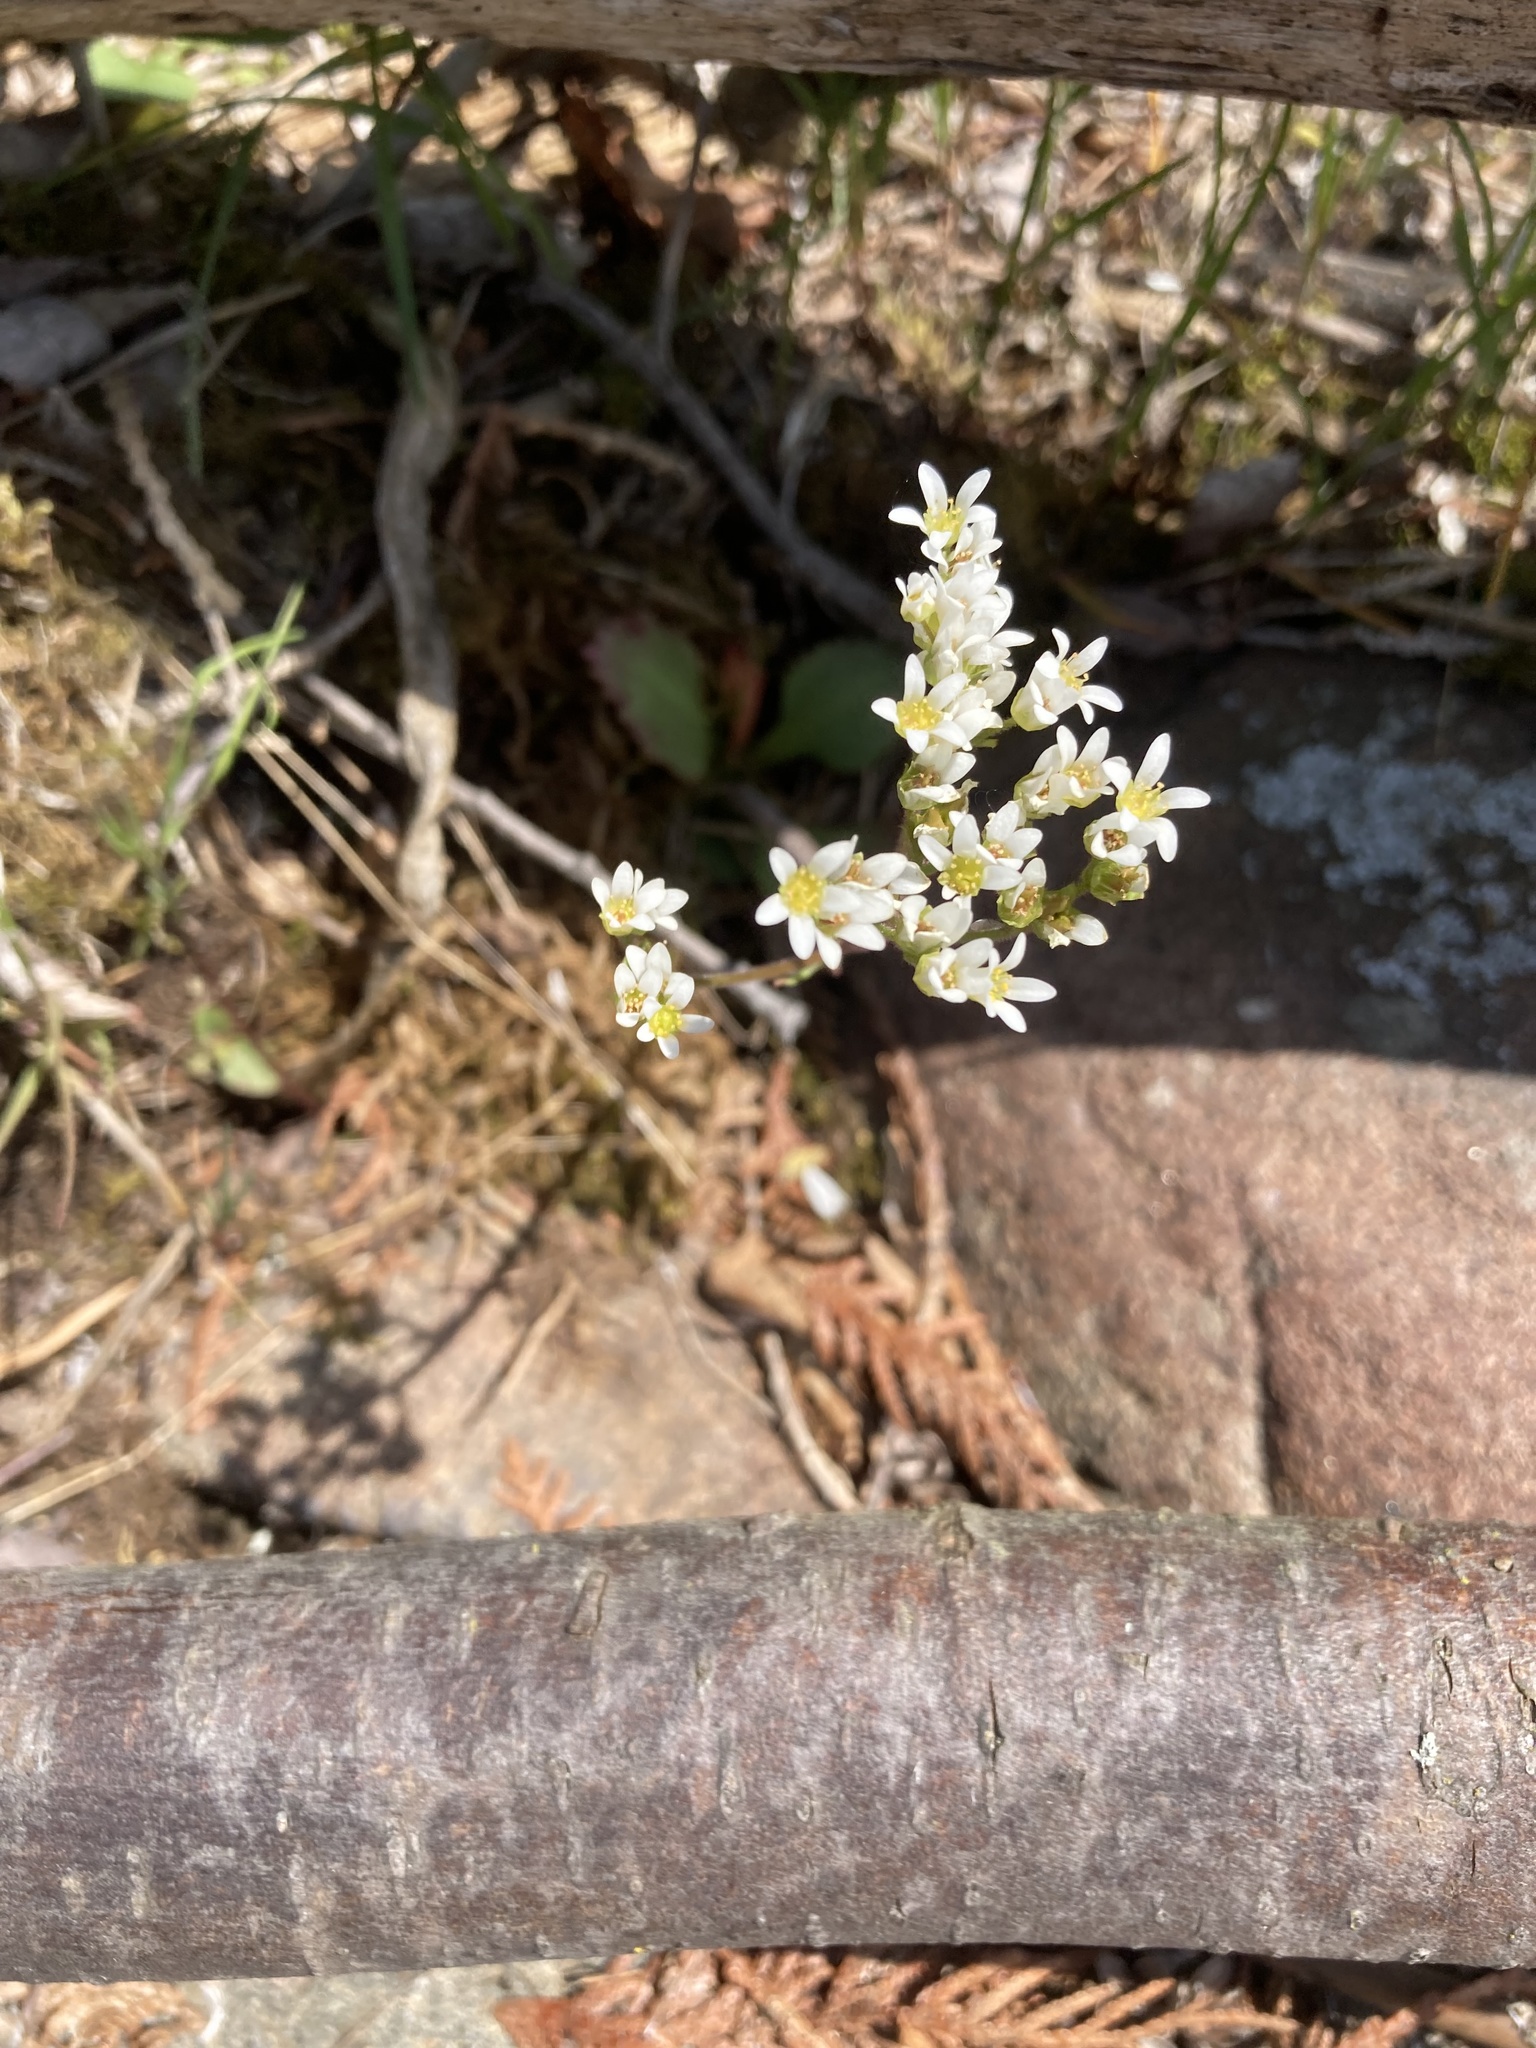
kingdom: Plantae
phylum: Tracheophyta
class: Magnoliopsida
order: Saxifragales
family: Saxifragaceae
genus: Micranthes
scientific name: Micranthes virginiensis
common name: Early saxifrage
